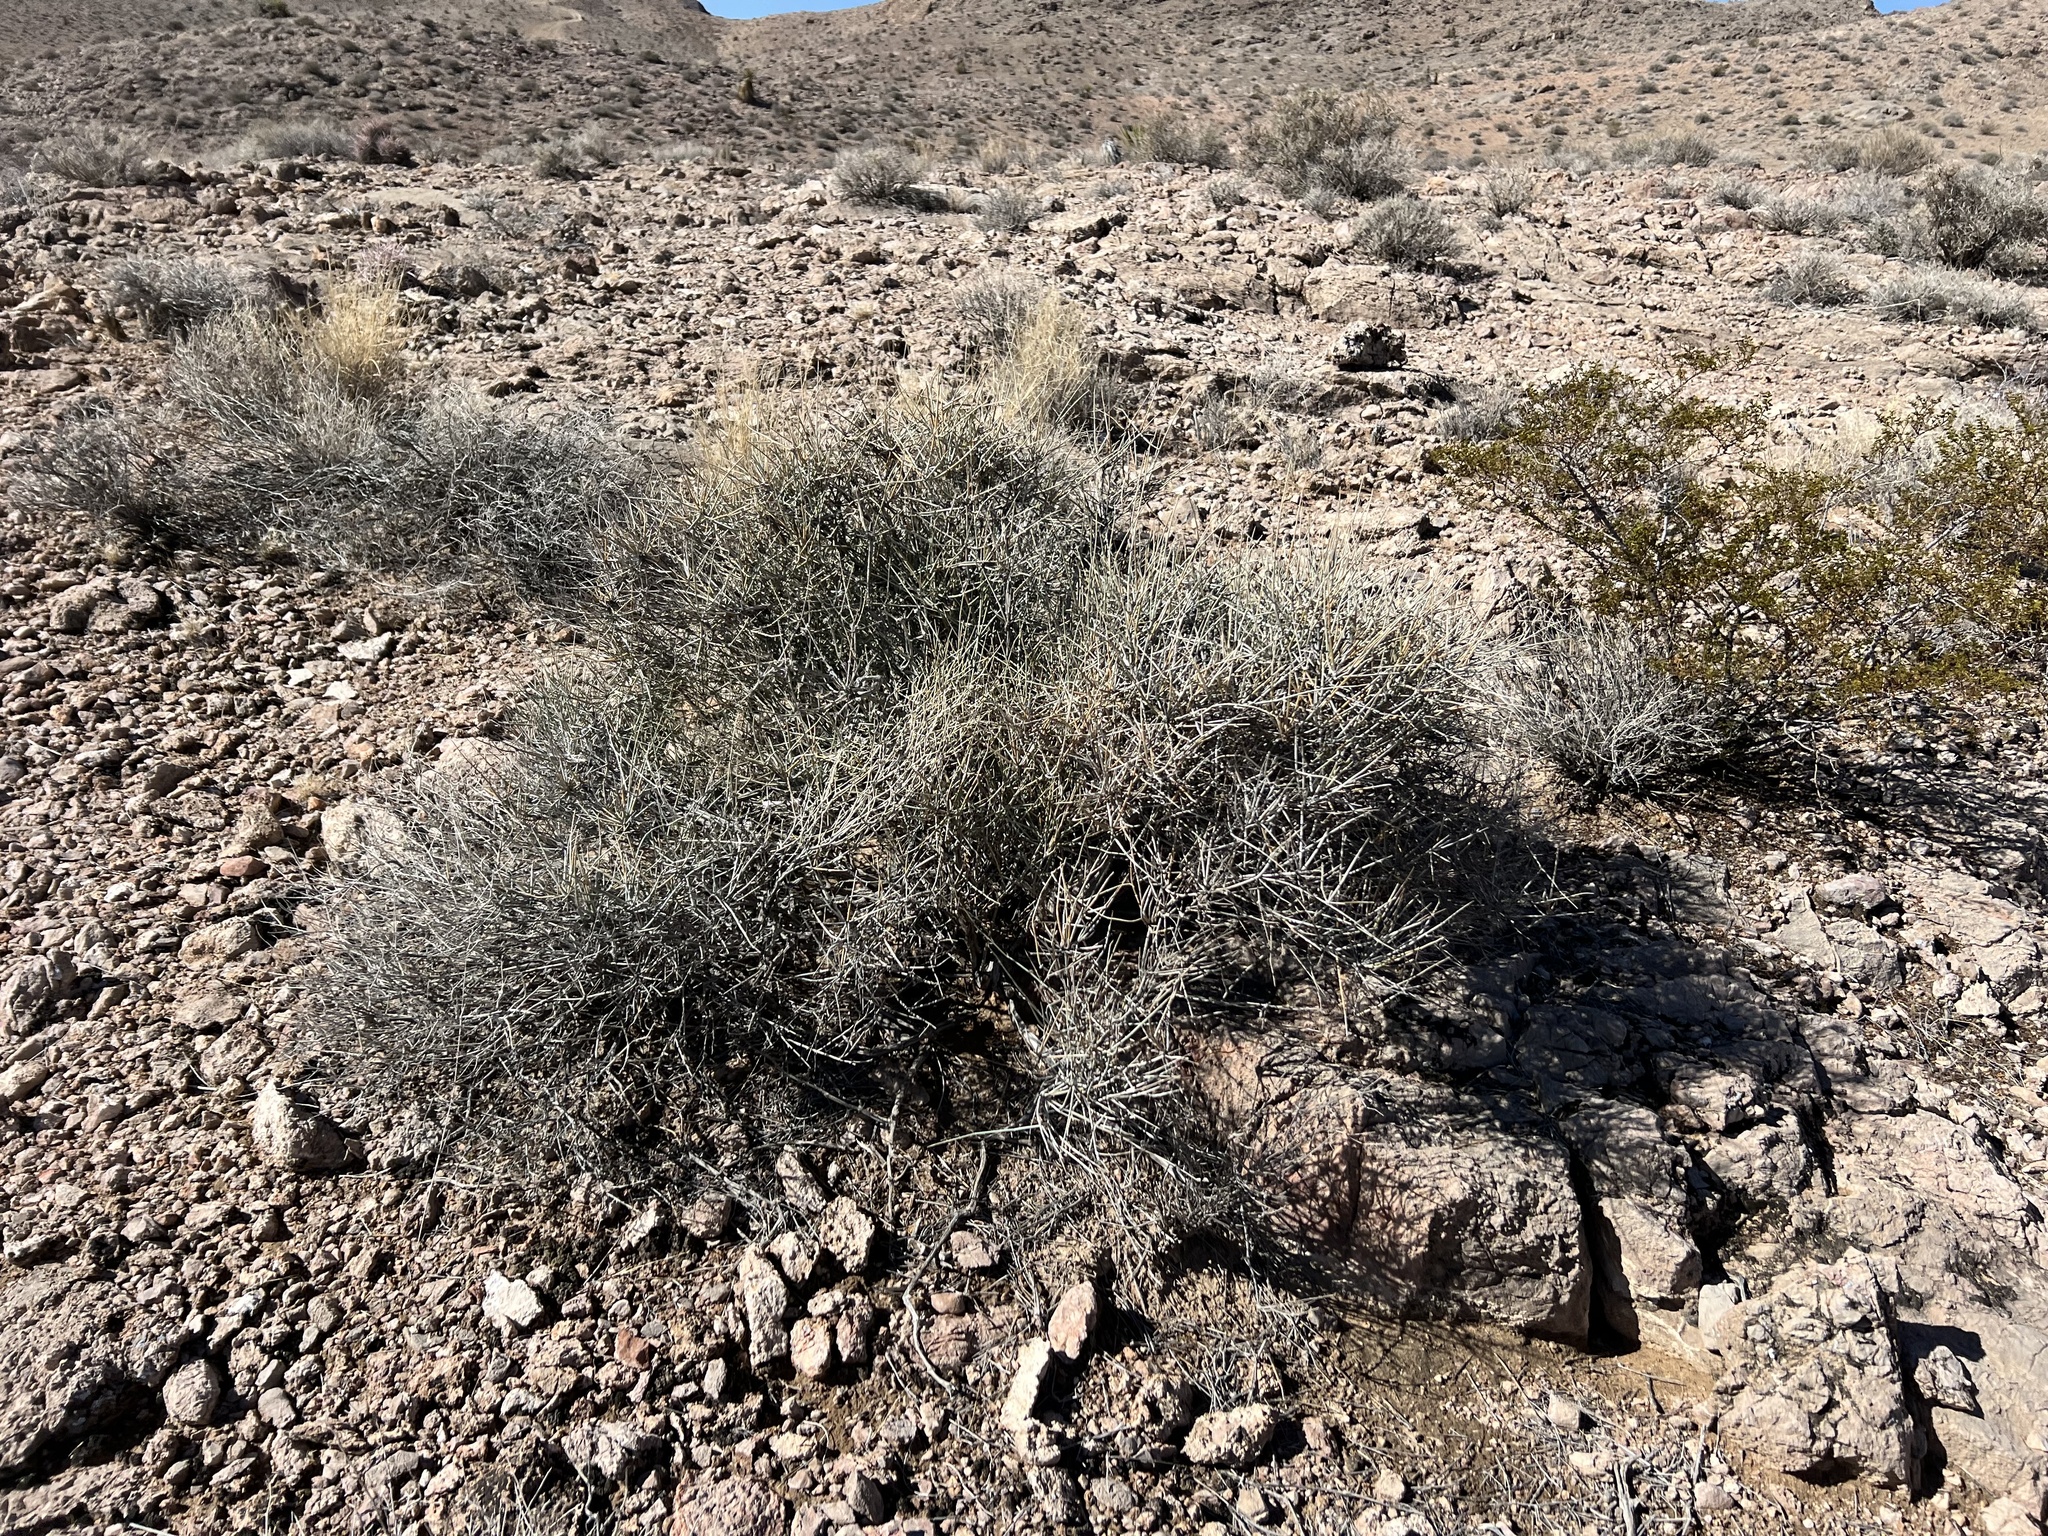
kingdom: Plantae
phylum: Tracheophyta
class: Gnetopsida
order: Ephedrales
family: Ephedraceae
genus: Ephedra
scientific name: Ephedra nevadensis
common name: Gray ephedra
